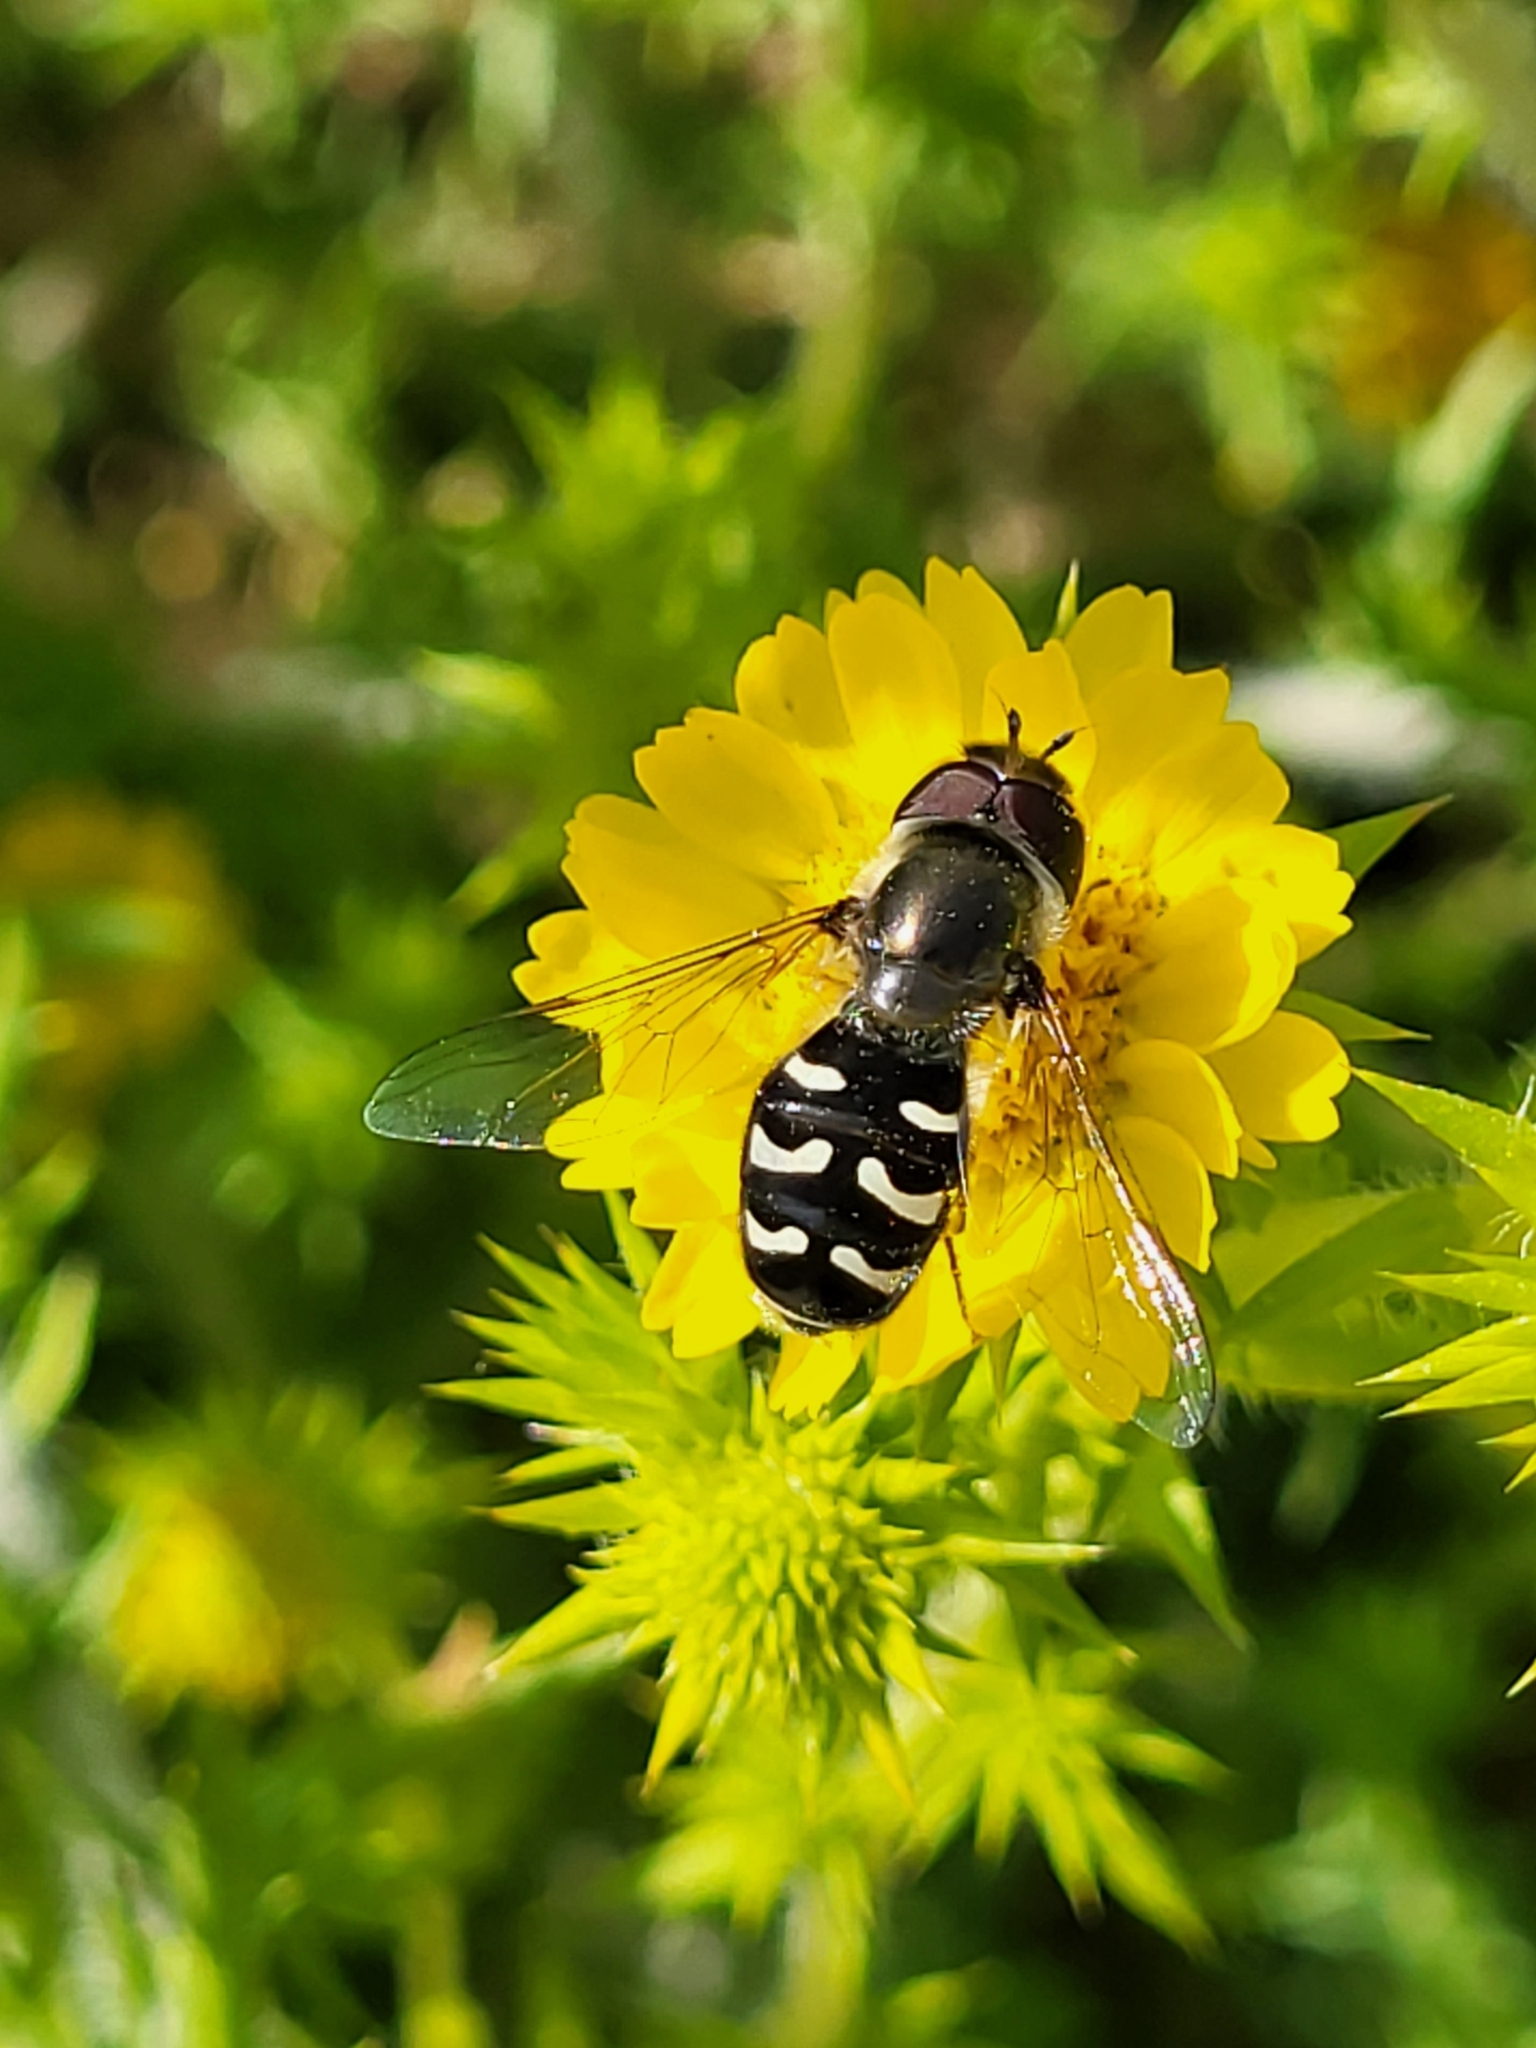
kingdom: Animalia
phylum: Arthropoda
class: Insecta
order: Diptera
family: Syrphidae
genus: Scaeva
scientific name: Scaeva affinis
